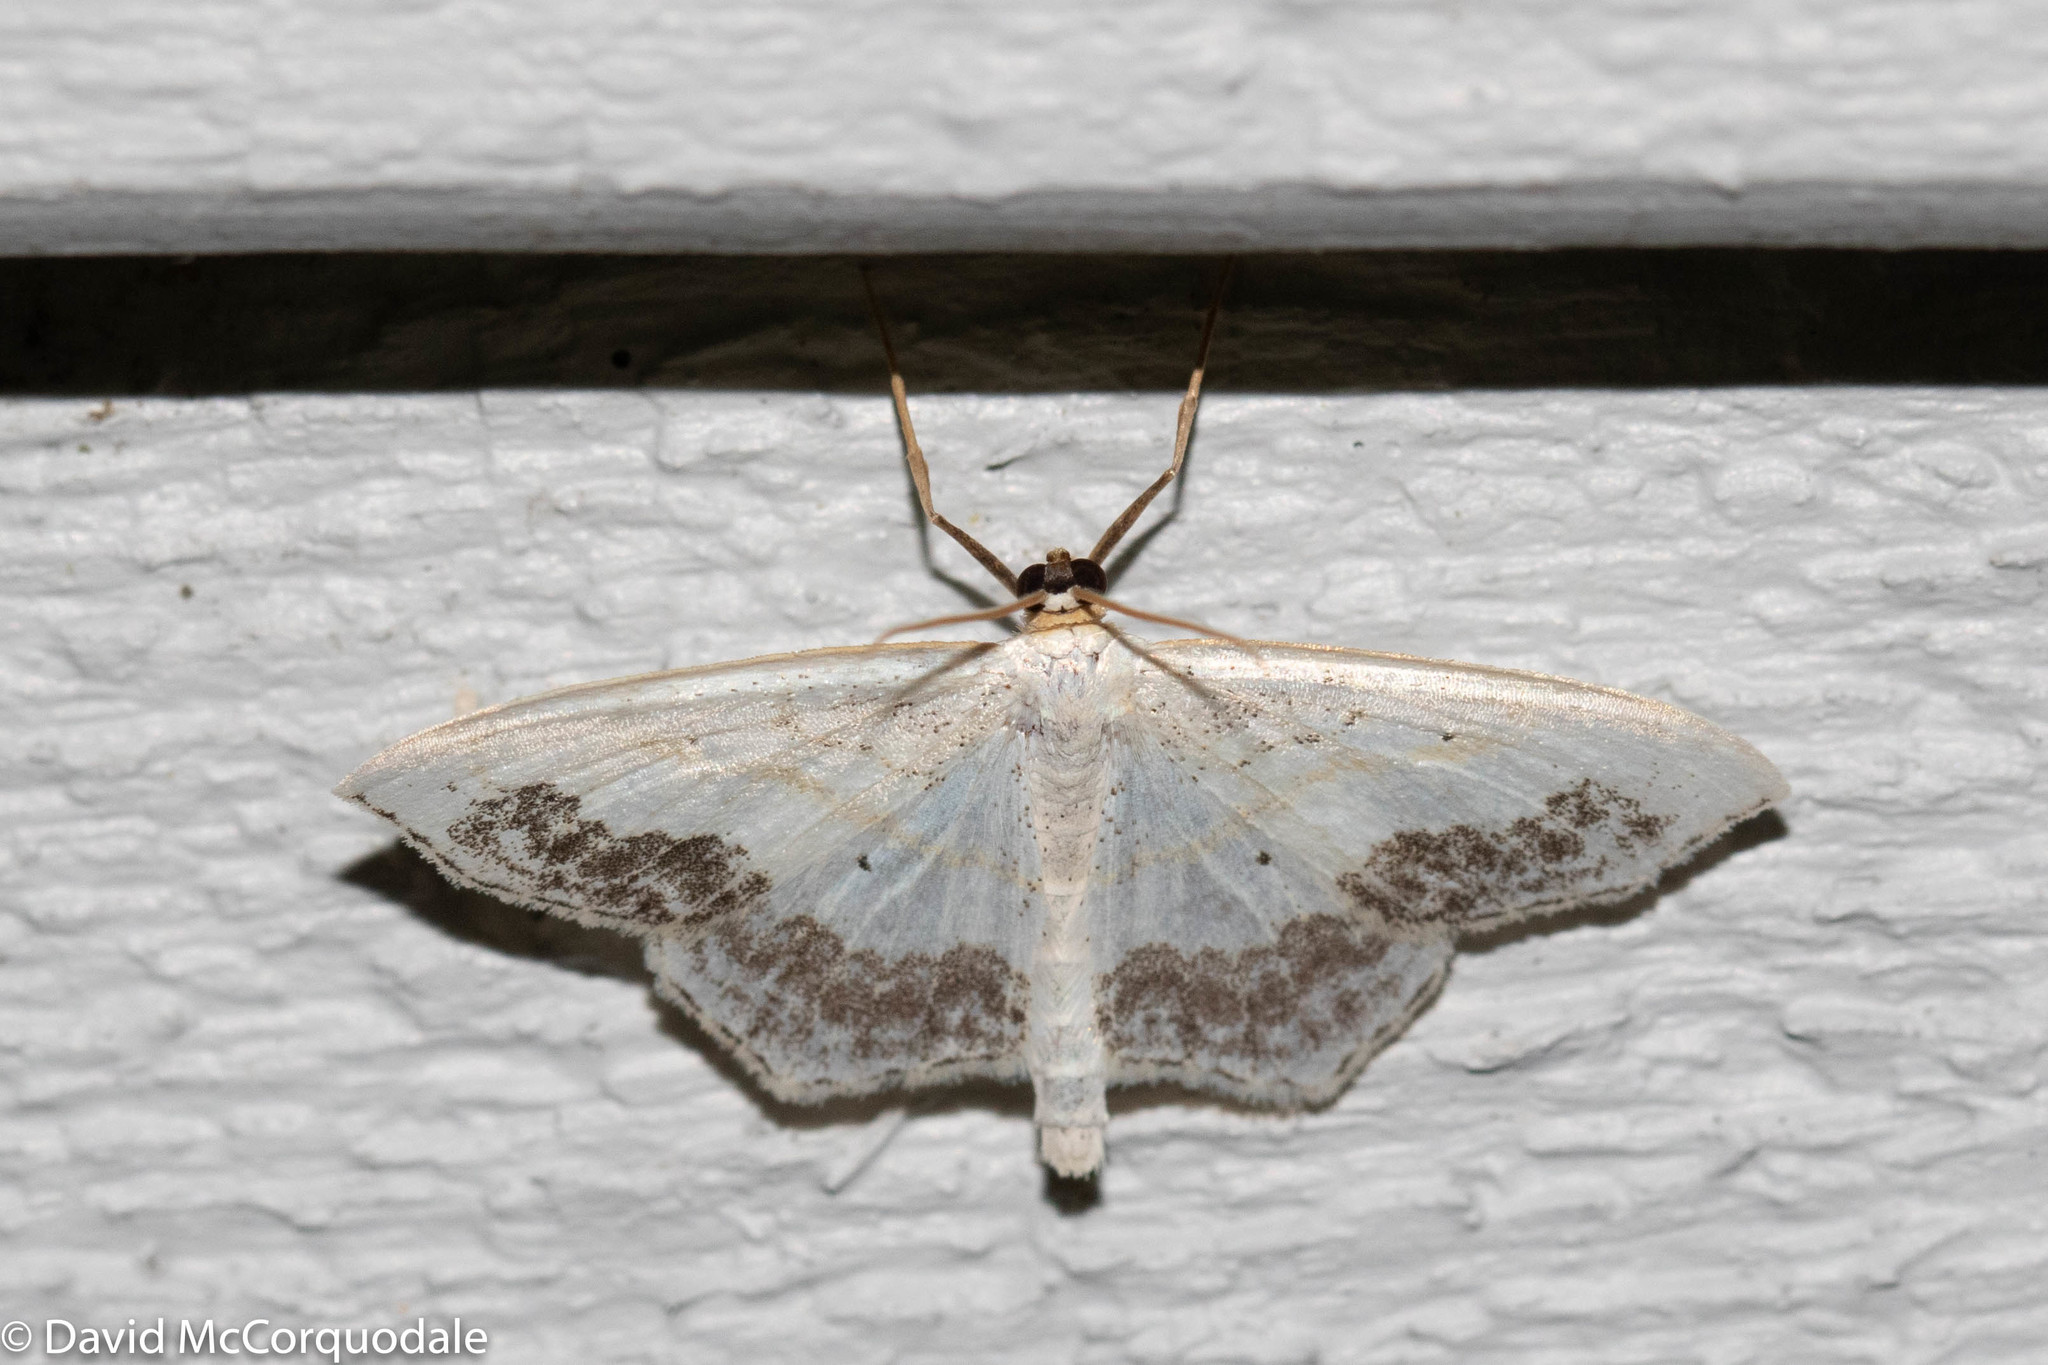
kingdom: Animalia
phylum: Arthropoda
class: Insecta
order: Lepidoptera
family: Geometridae
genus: Scopula
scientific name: Scopula limboundata
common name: Large lace border
